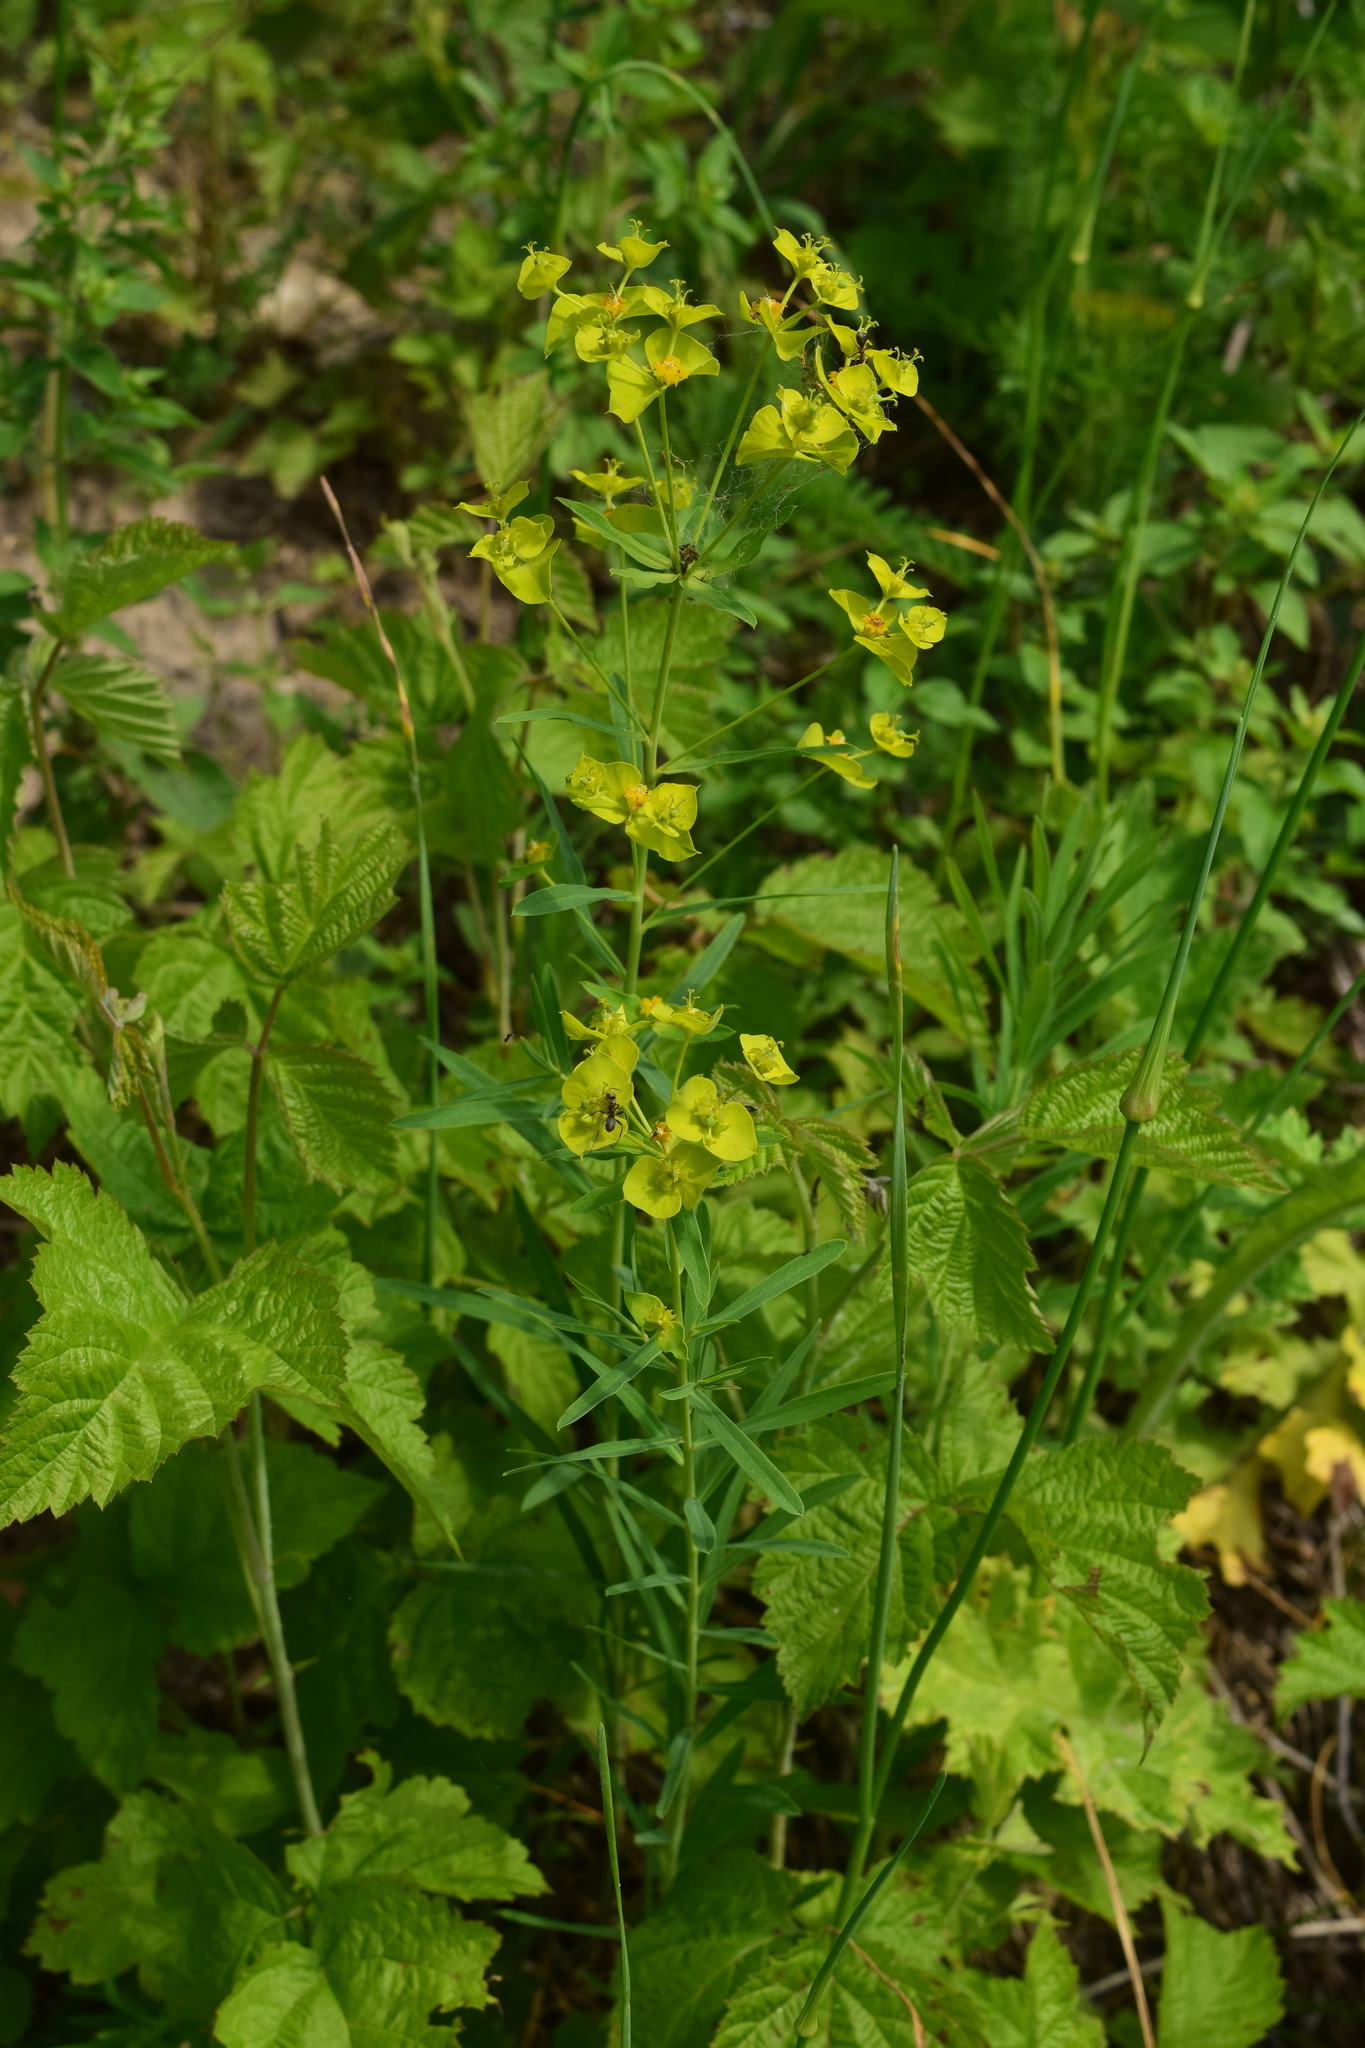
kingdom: Plantae
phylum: Tracheophyta
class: Magnoliopsida
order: Malpighiales
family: Euphorbiaceae
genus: Euphorbia
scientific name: Euphorbia virgata
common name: Leafy spurge
